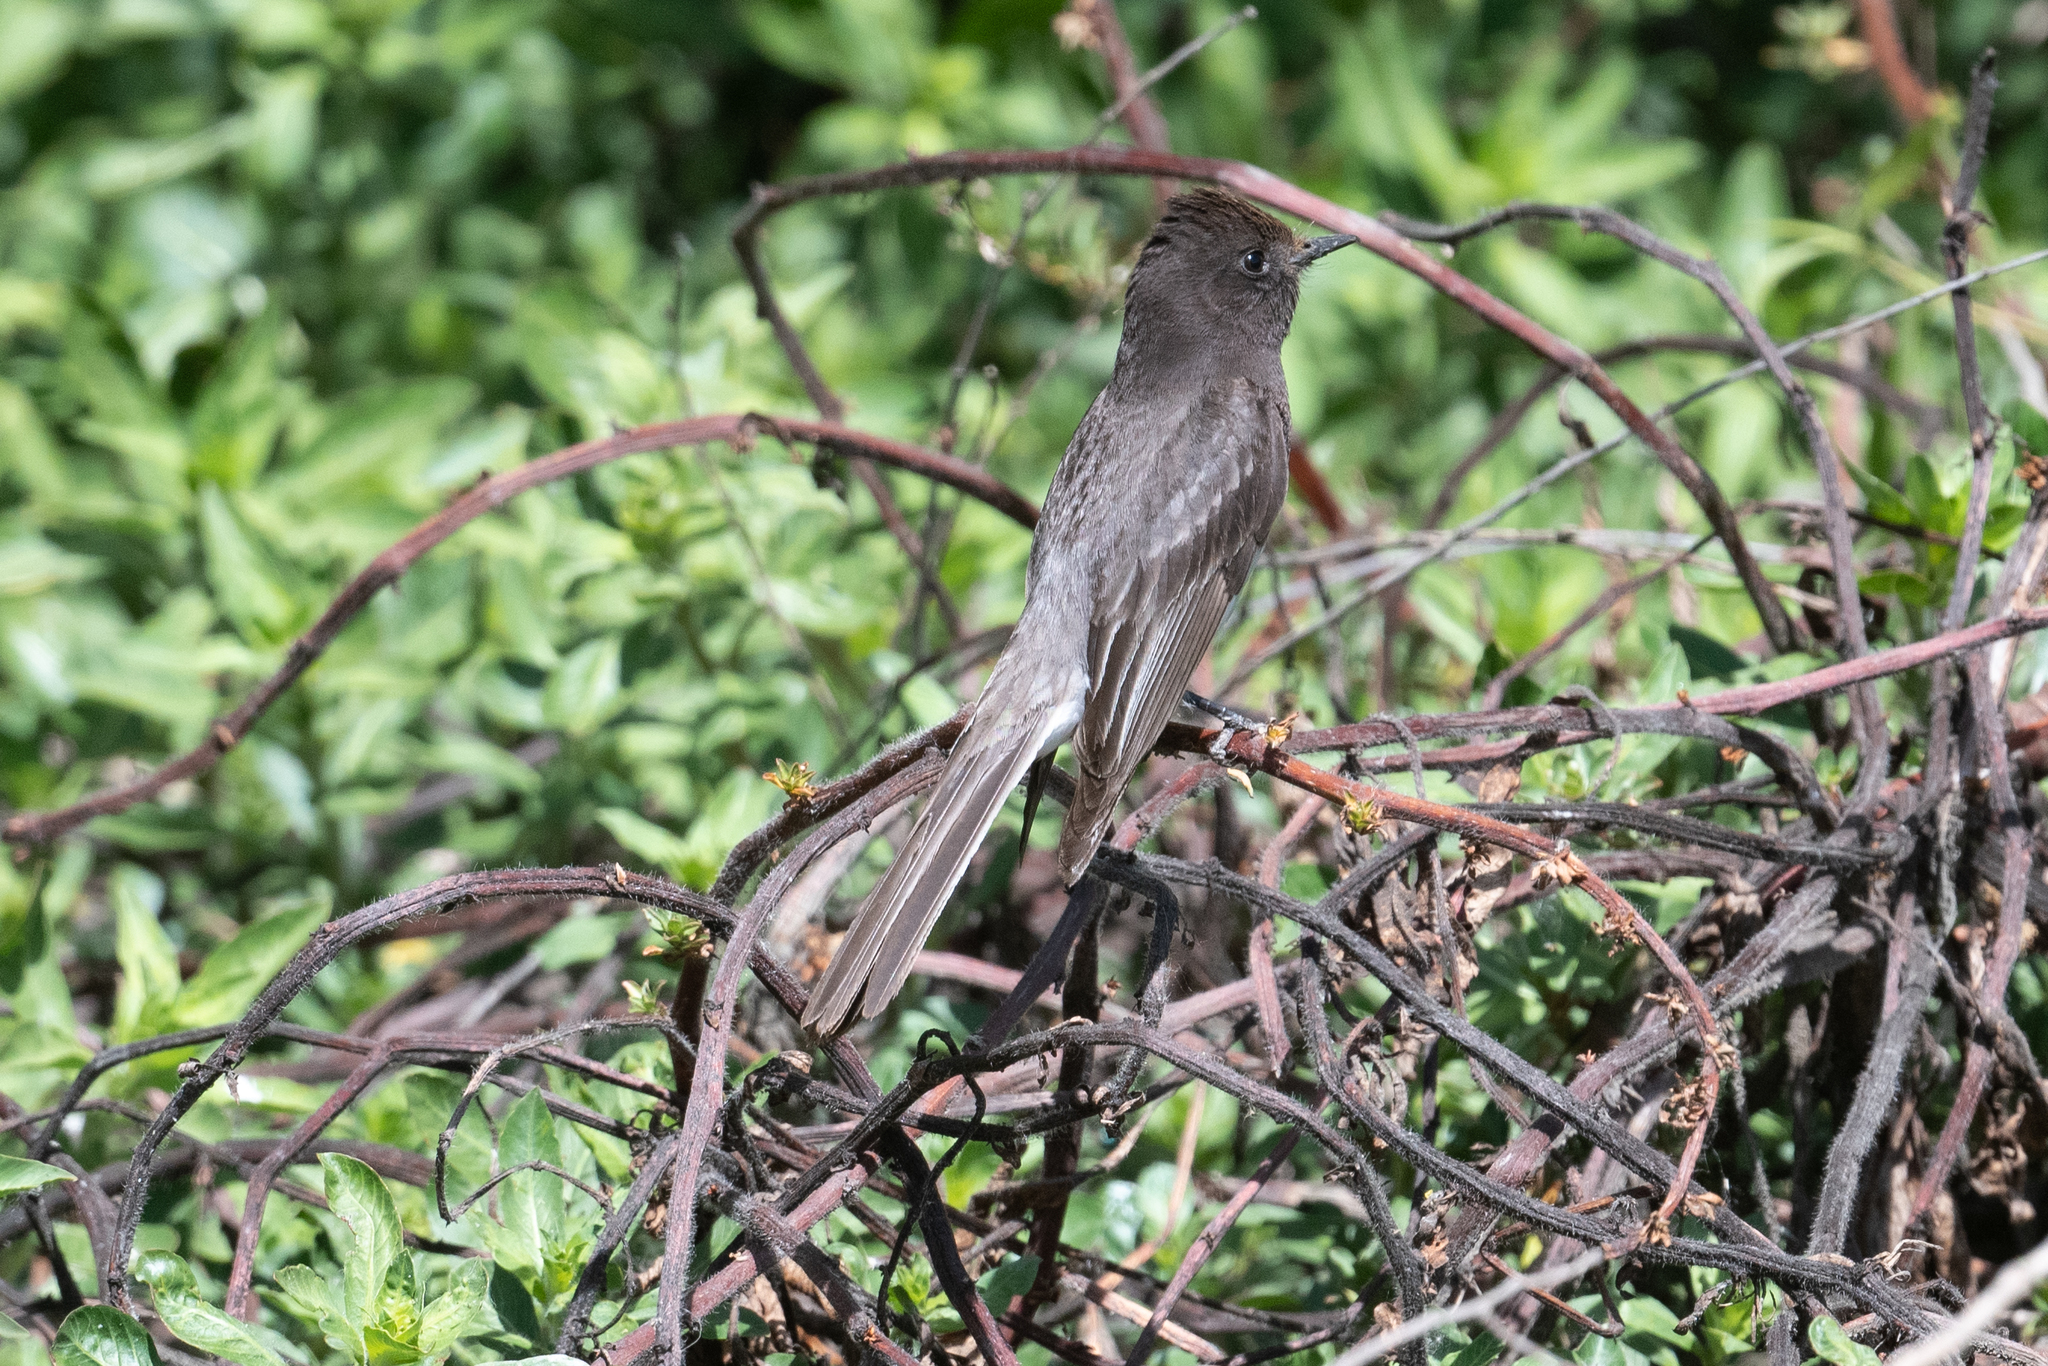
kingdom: Animalia
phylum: Chordata
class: Aves
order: Passeriformes
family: Tyrannidae
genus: Sayornis
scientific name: Sayornis nigricans
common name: Black phoebe
